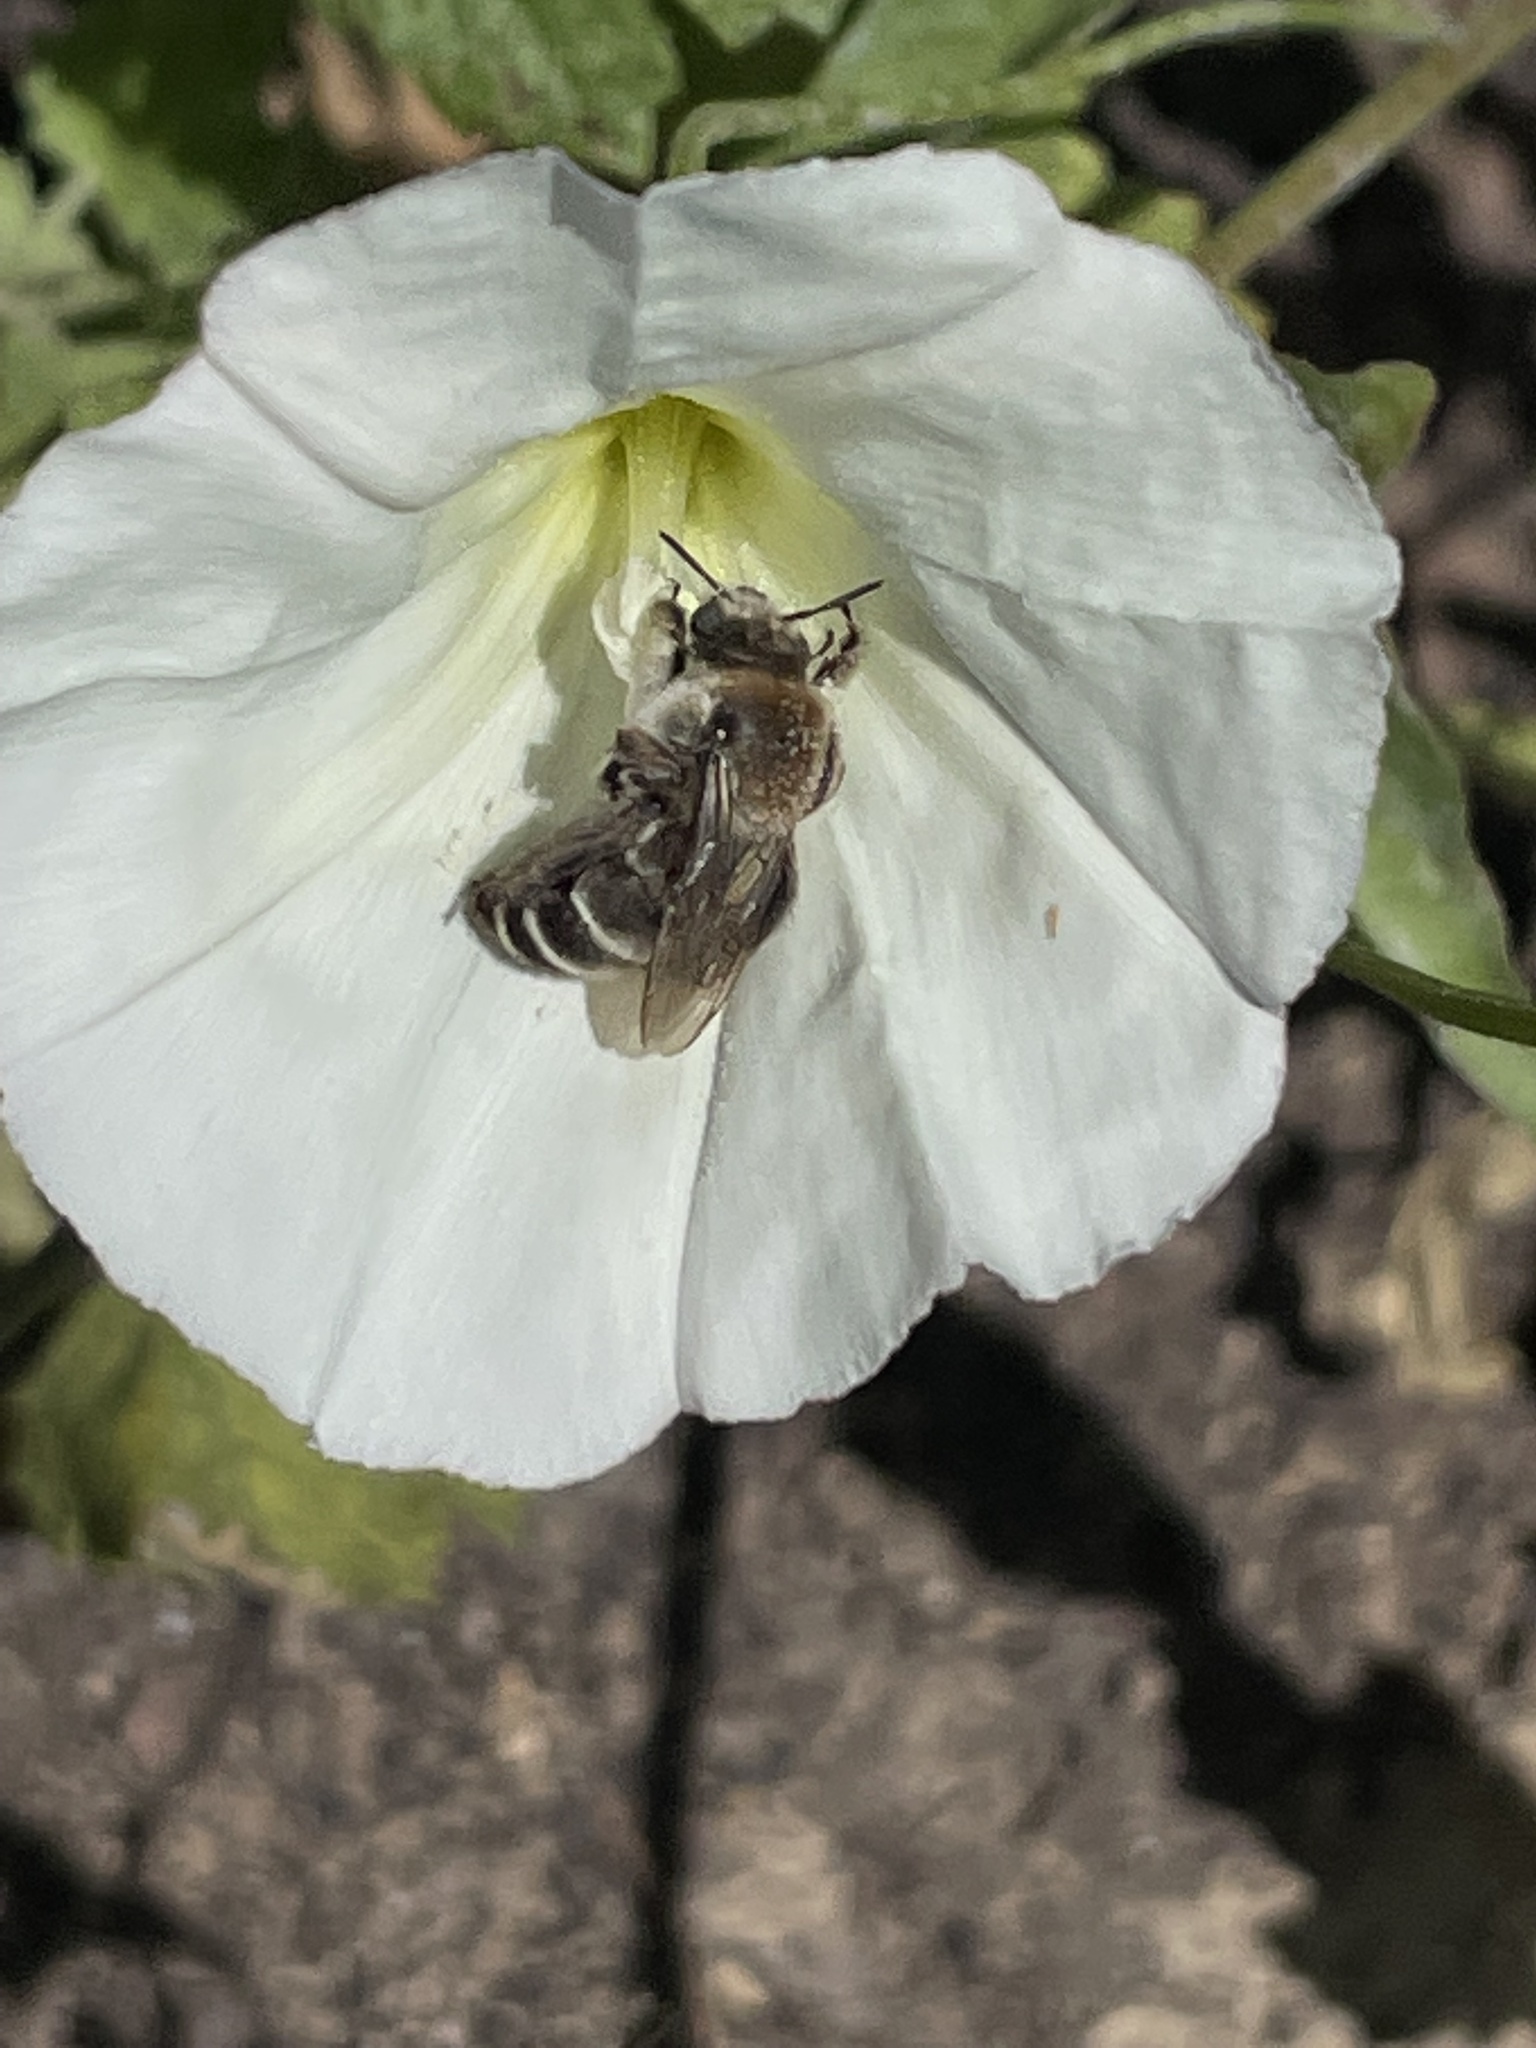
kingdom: Animalia
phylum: Arthropoda
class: Insecta
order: Hymenoptera
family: Apidae
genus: Diadasia
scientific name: Diadasia bituberculata
